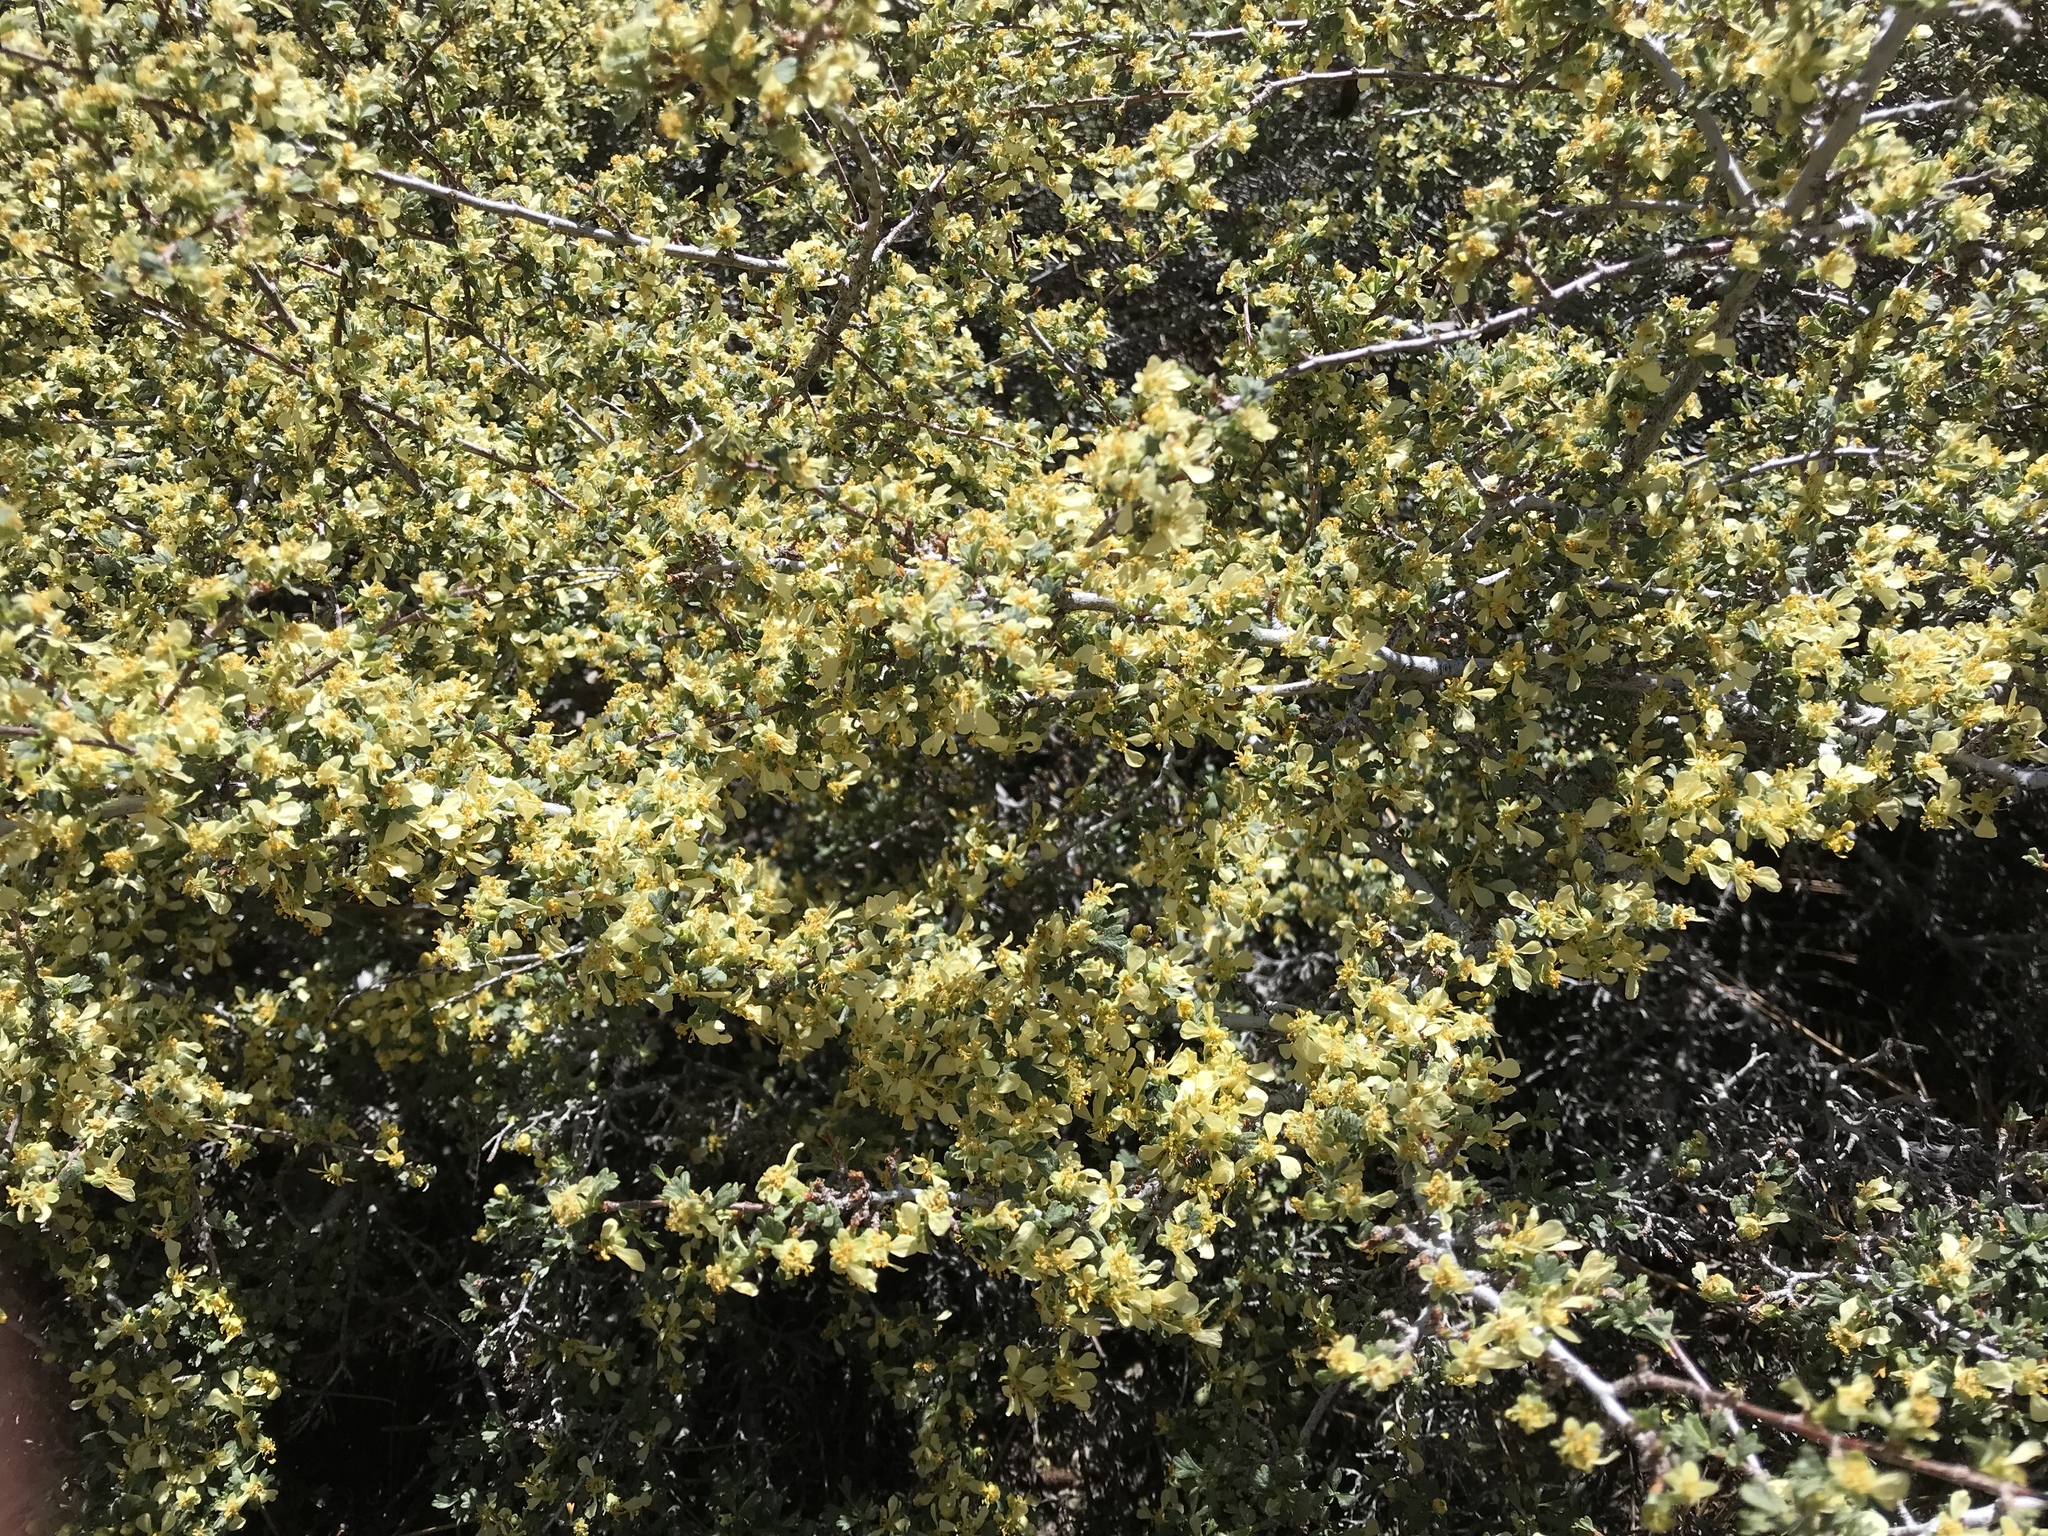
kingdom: Plantae
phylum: Tracheophyta
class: Magnoliopsida
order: Rosales
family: Rosaceae
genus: Purshia
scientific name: Purshia tridentata
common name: Antelope bitterbrush
